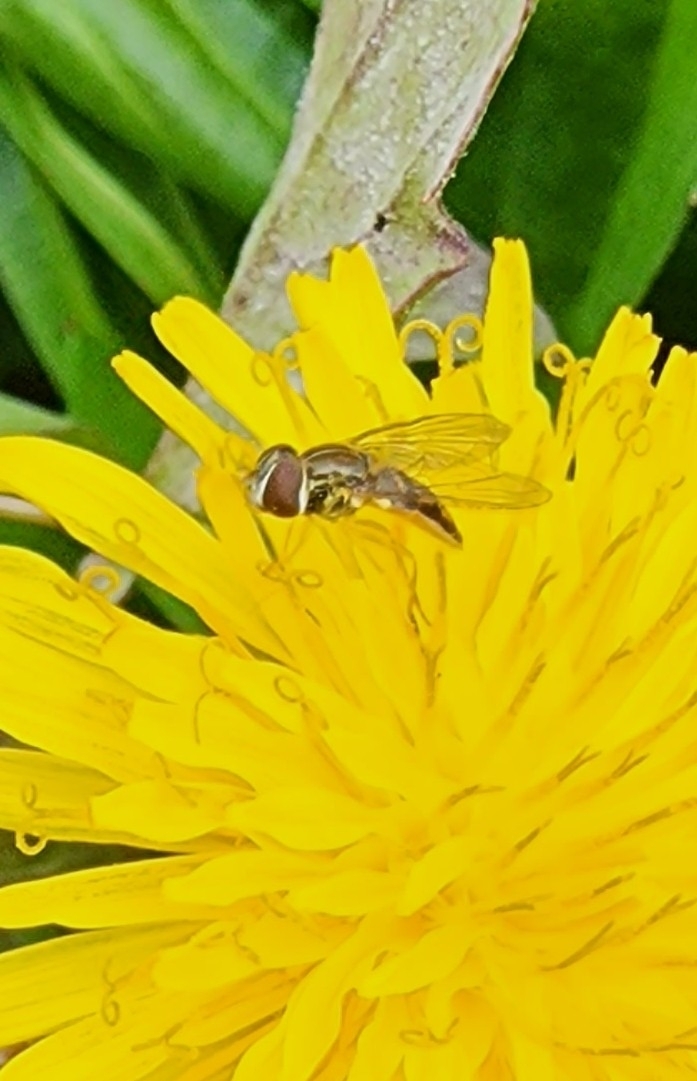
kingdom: Animalia
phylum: Arthropoda
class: Insecta
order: Diptera
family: Syrphidae
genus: Toxomerus
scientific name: Toxomerus marginatus
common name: Syrphid fly
